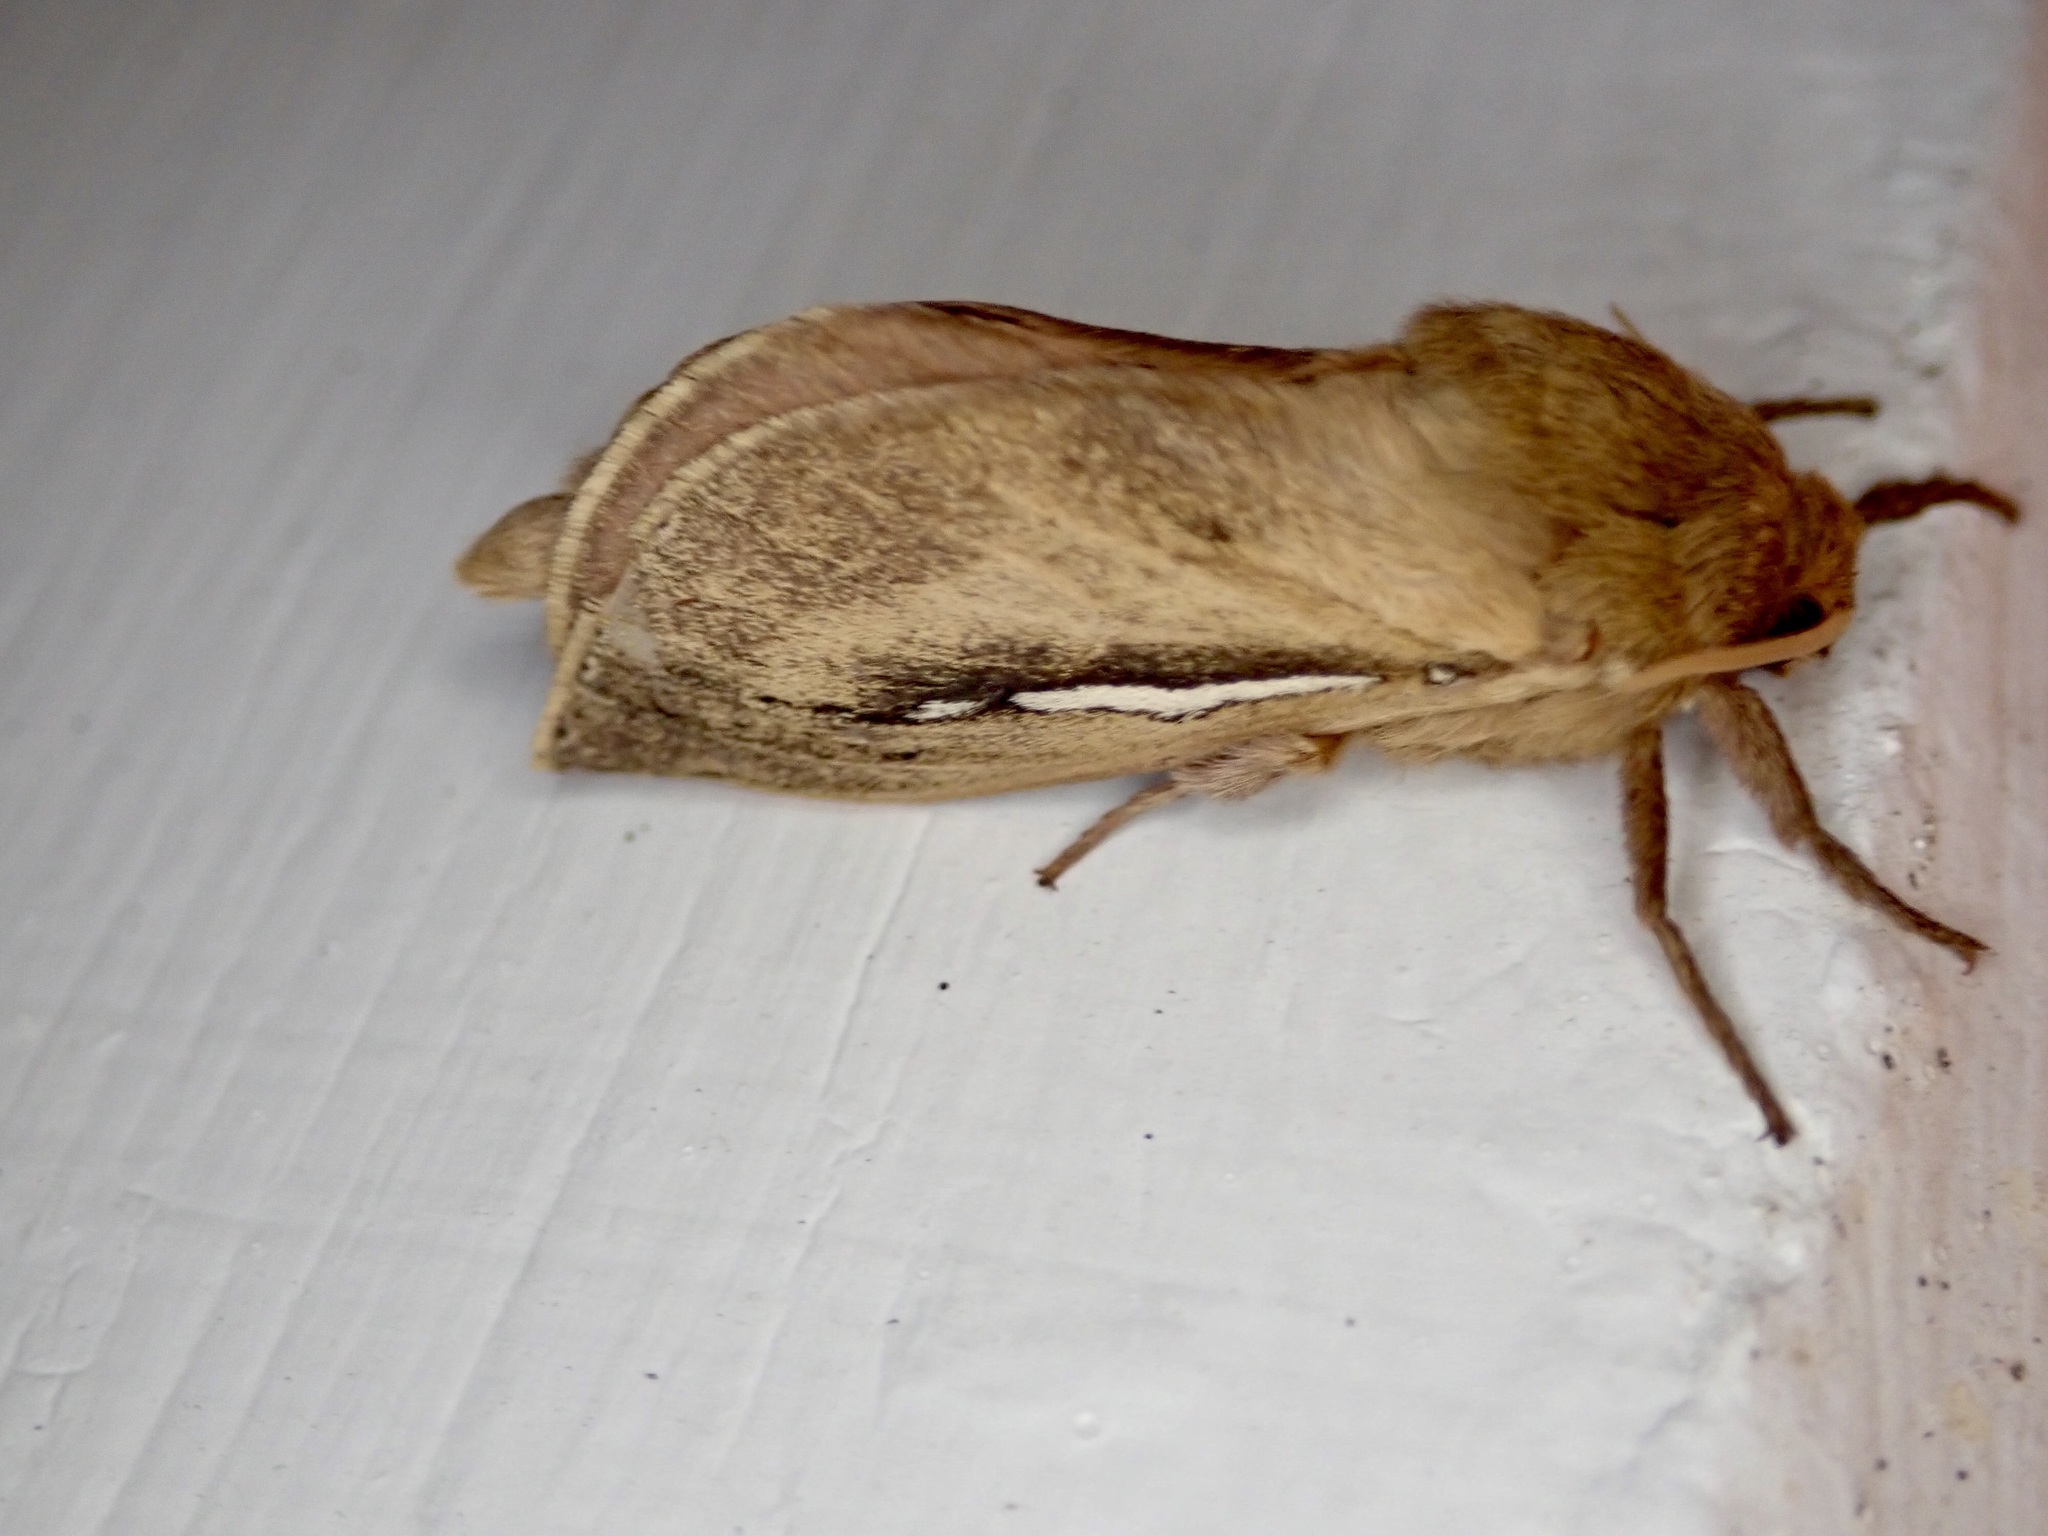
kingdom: Animalia
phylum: Arthropoda
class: Insecta
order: Lepidoptera
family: Hepialidae
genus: Wiseana
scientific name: Wiseana umbraculatus
